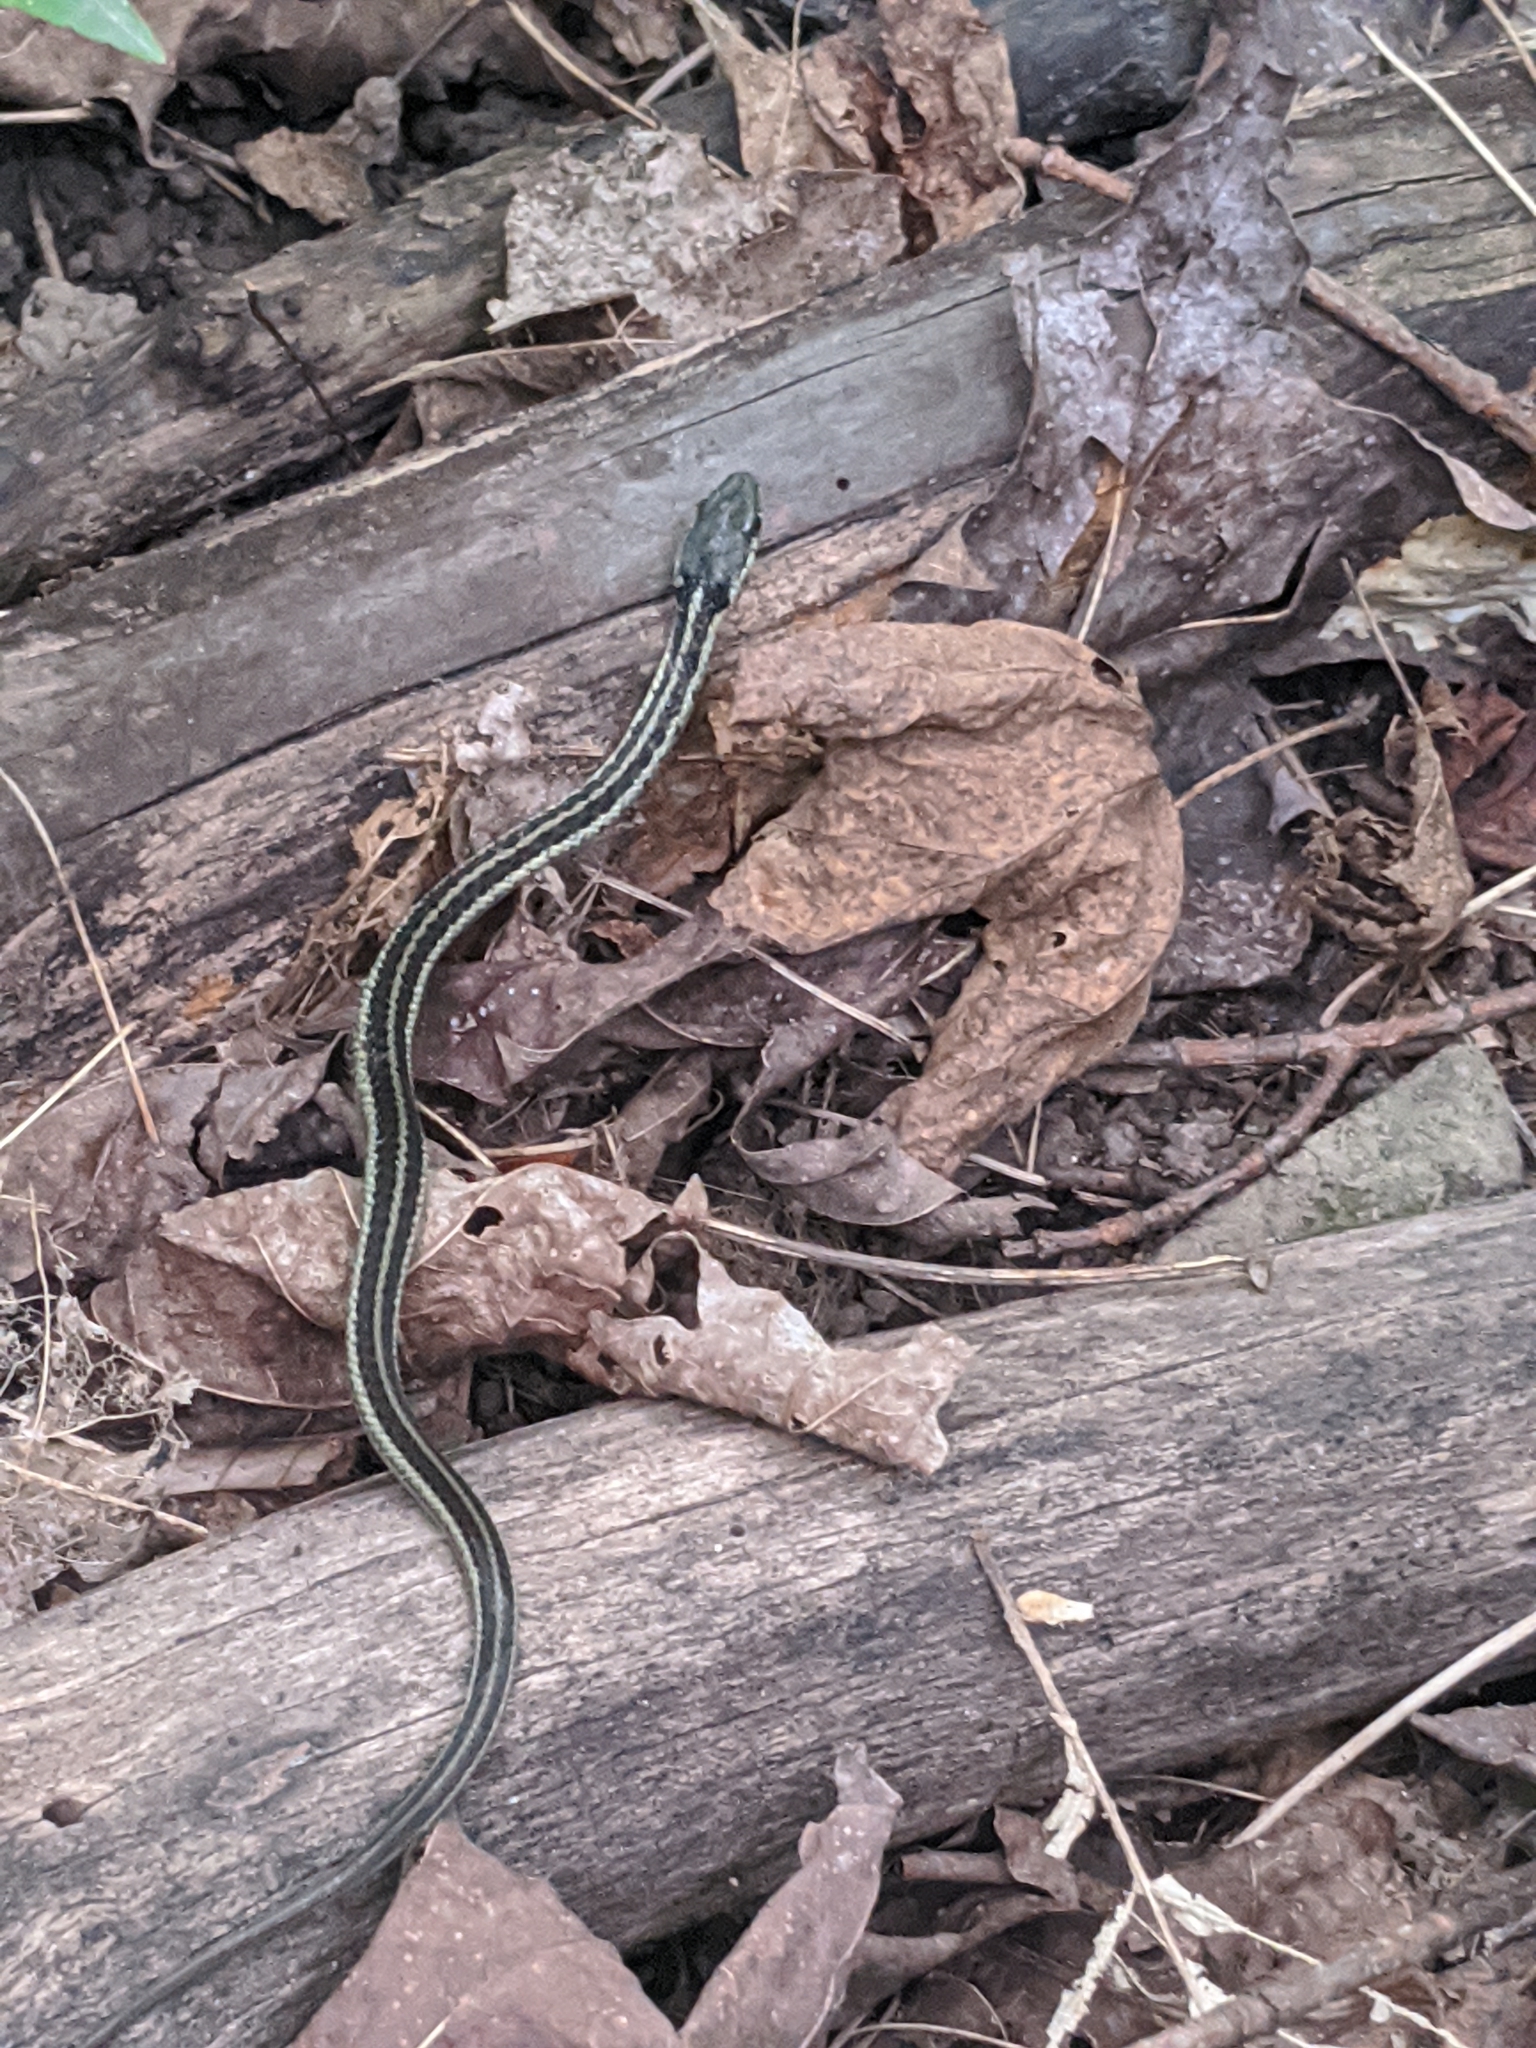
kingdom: Animalia
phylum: Chordata
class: Squamata
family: Colubridae
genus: Thamnophis
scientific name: Thamnophis sirtalis
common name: Common garter snake
